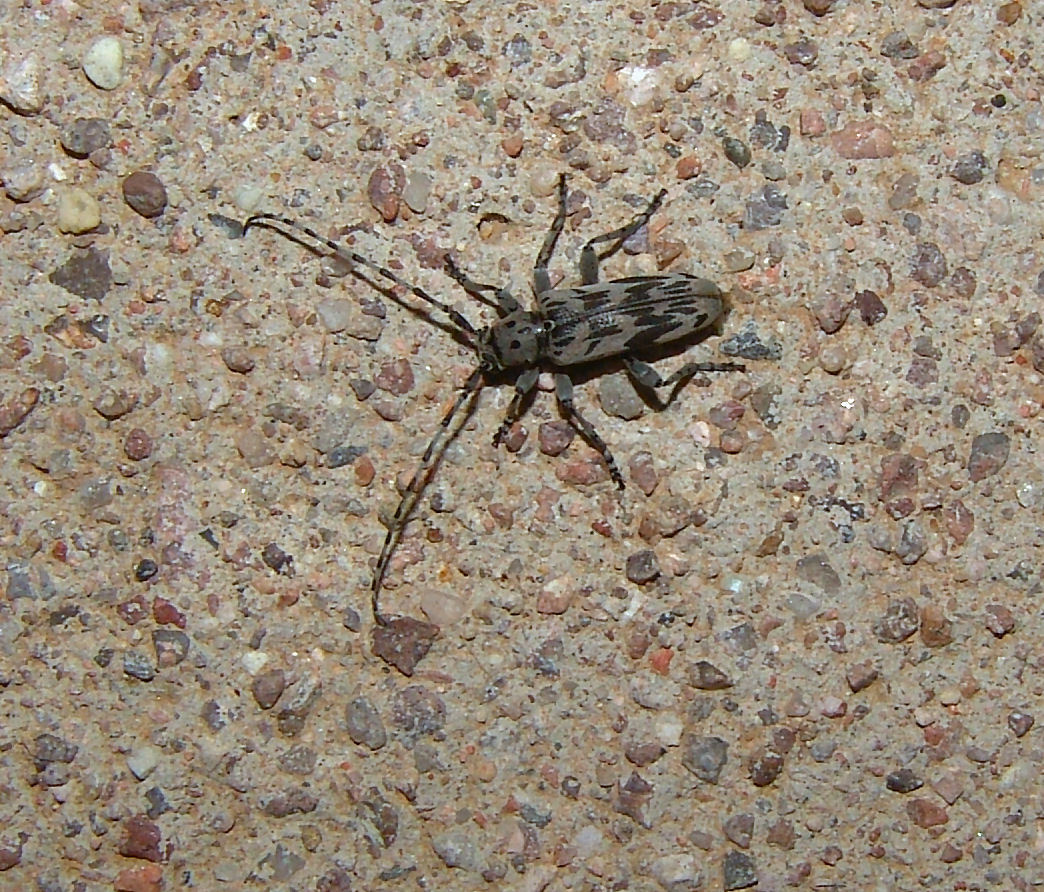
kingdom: Animalia
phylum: Arthropoda
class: Insecta
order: Coleoptera
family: Cerambycidae
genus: Tigrinestola
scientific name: Tigrinestola tigrina
